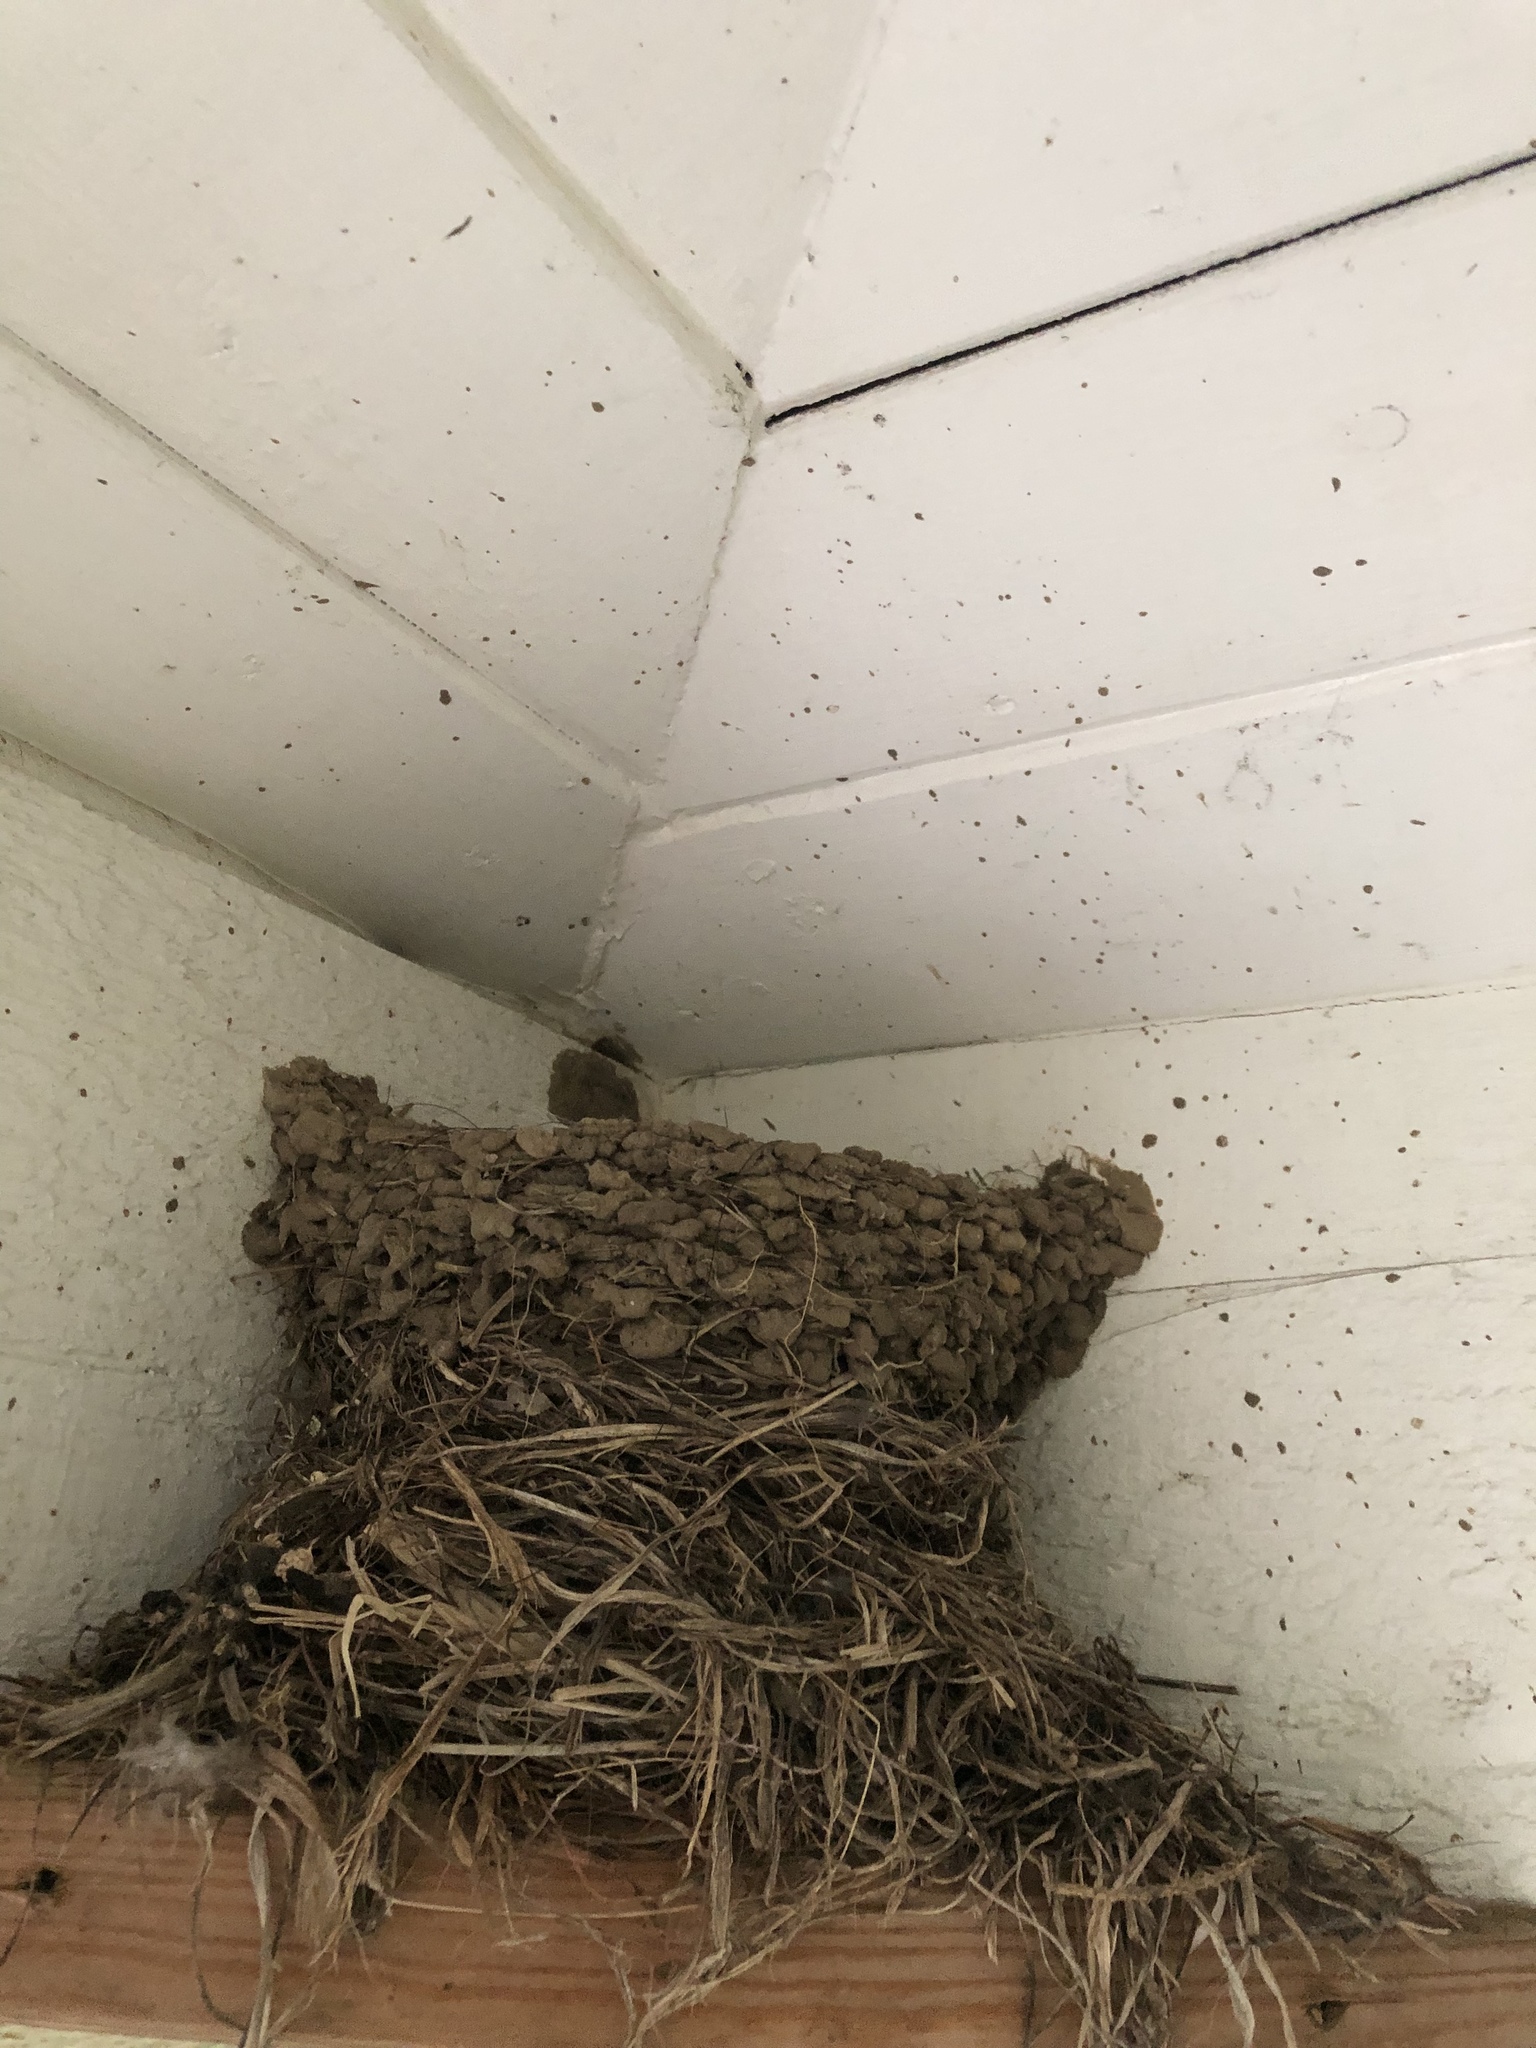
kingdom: Animalia
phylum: Chordata
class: Aves
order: Passeriformes
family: Hirundinidae
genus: Hirundo
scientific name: Hirundo rustica
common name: Barn swallow
